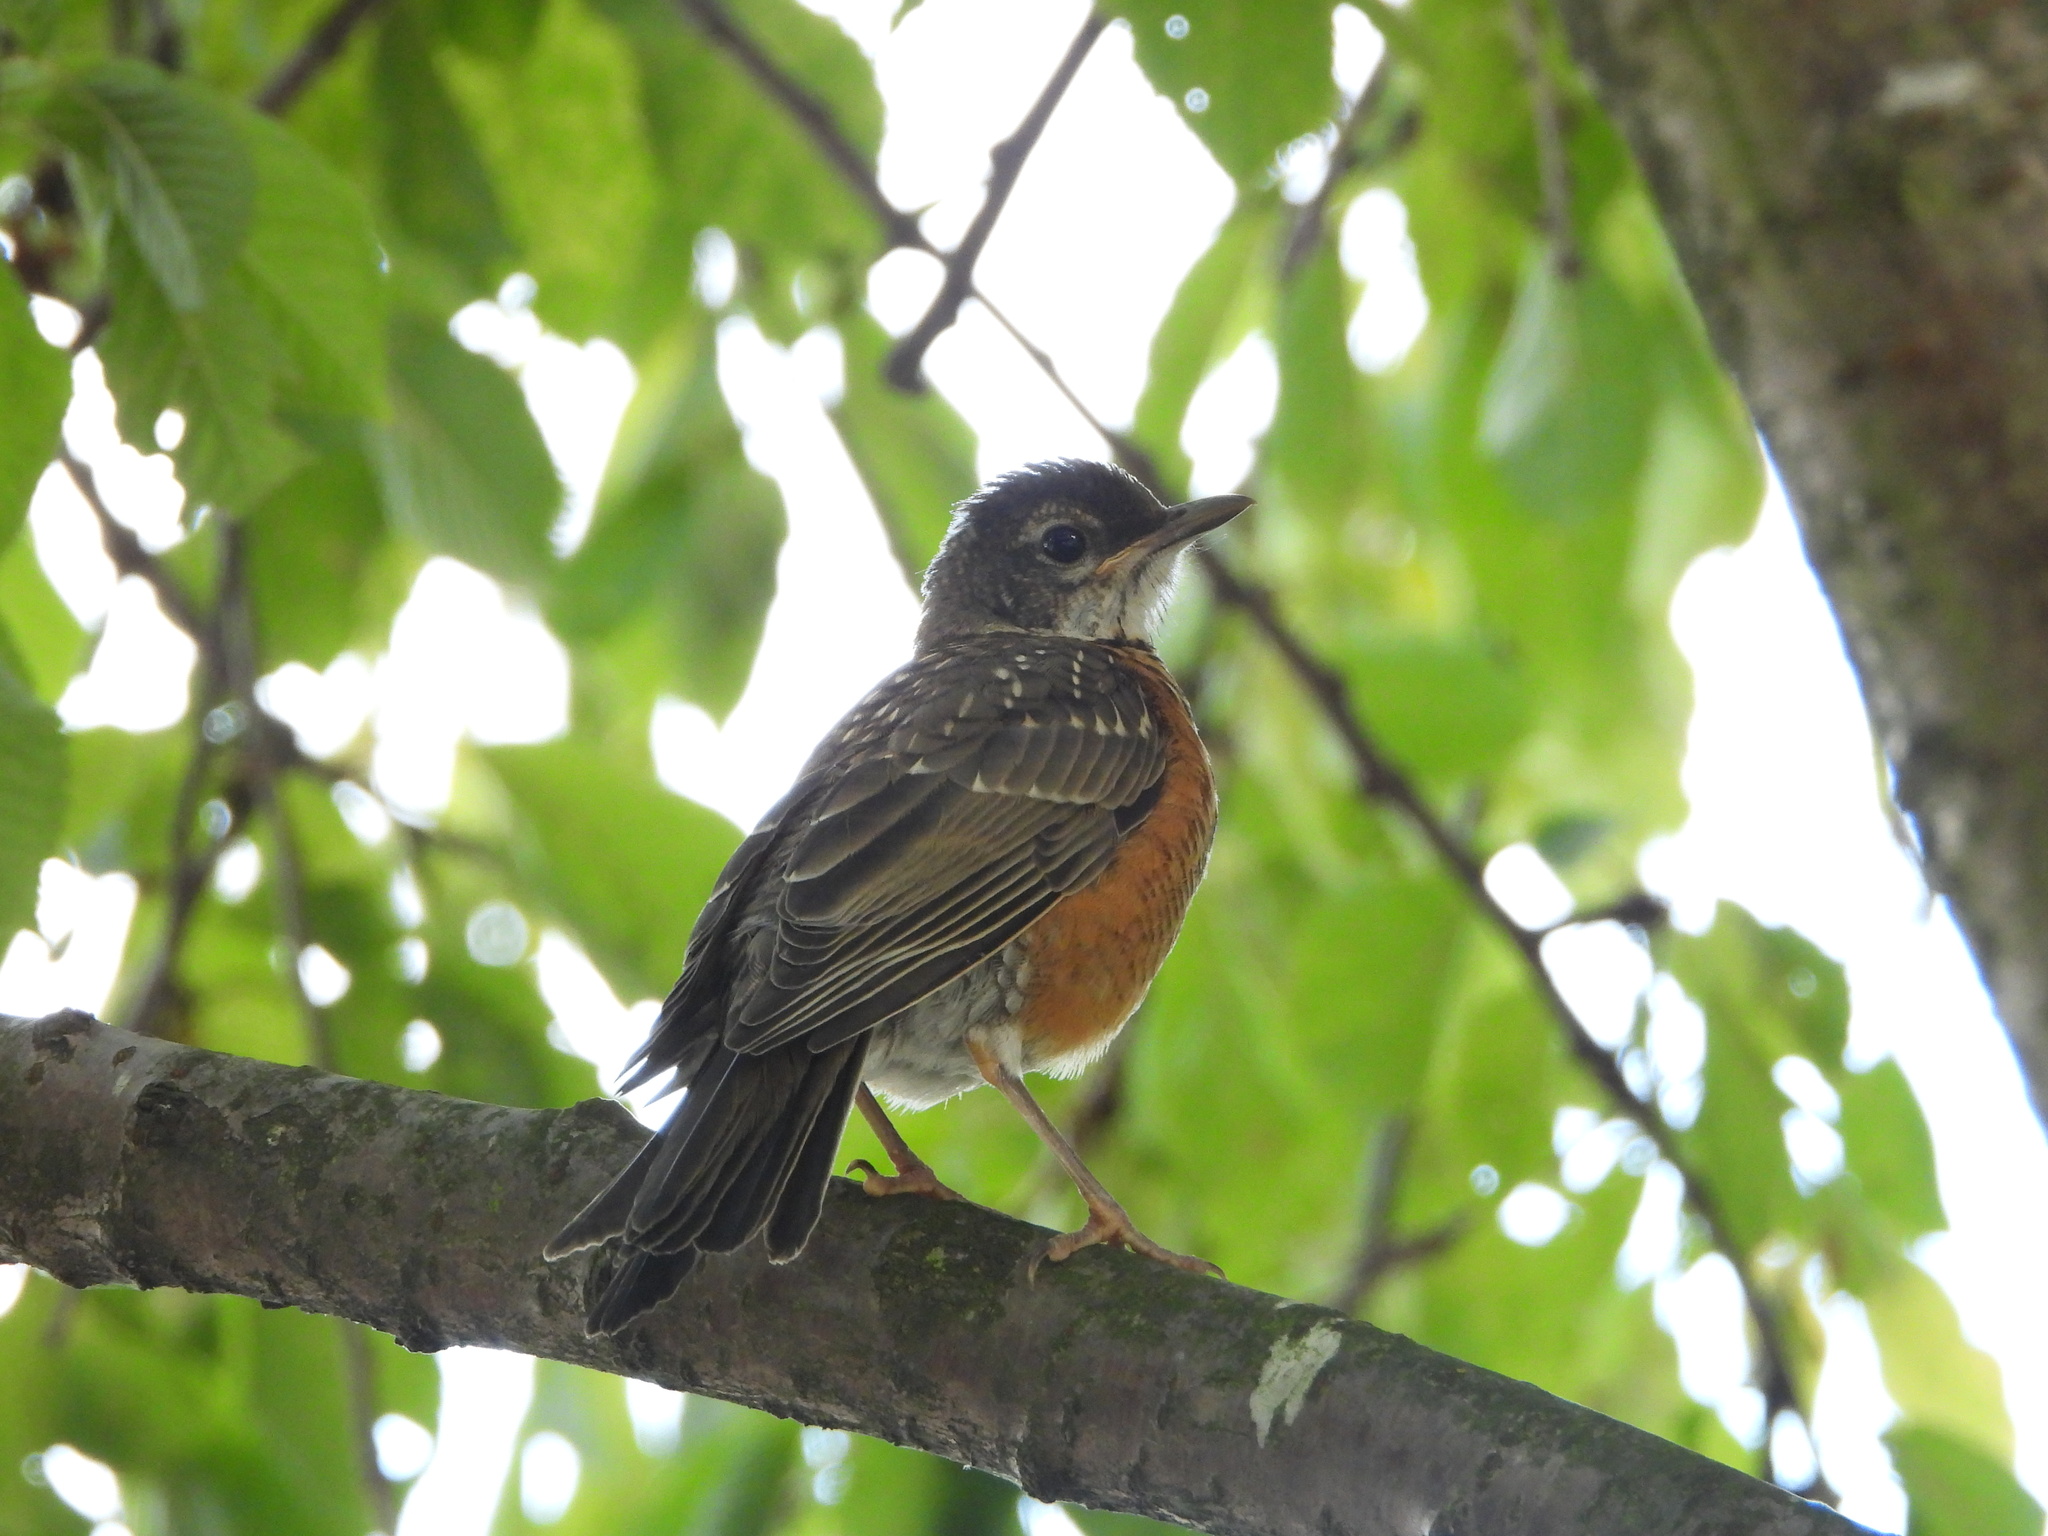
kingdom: Animalia
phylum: Chordata
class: Aves
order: Passeriformes
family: Turdidae
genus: Turdus
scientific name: Turdus migratorius
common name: American robin
